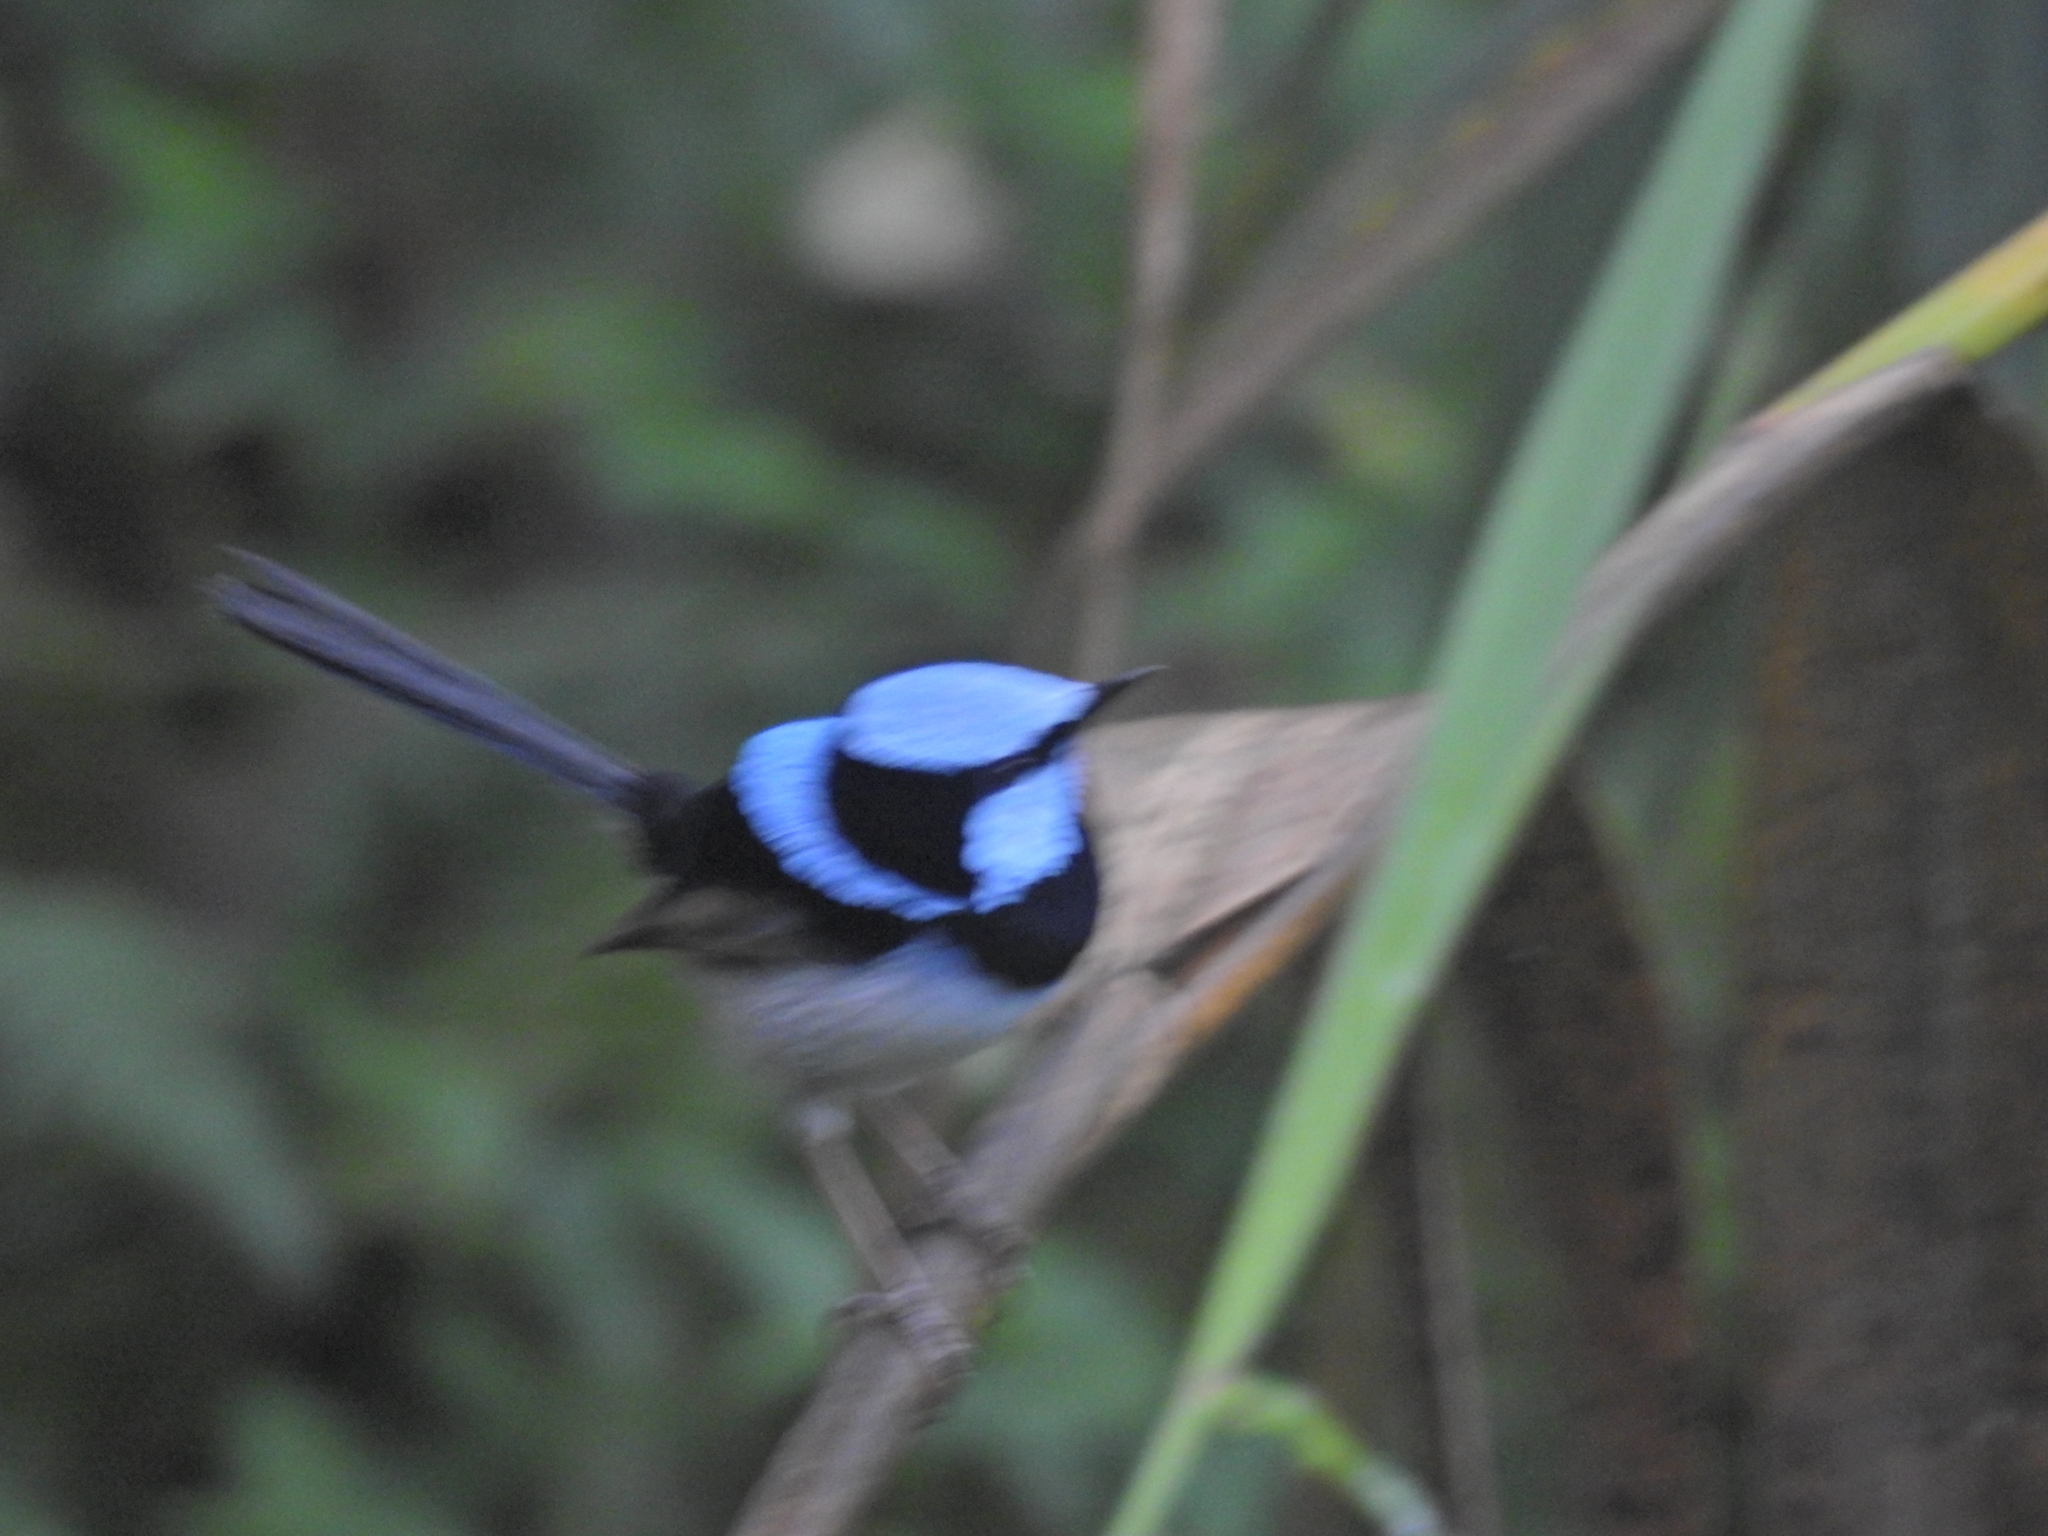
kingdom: Animalia
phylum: Chordata
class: Aves
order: Passeriformes
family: Maluridae
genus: Malurus
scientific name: Malurus cyaneus
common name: Superb fairywren
